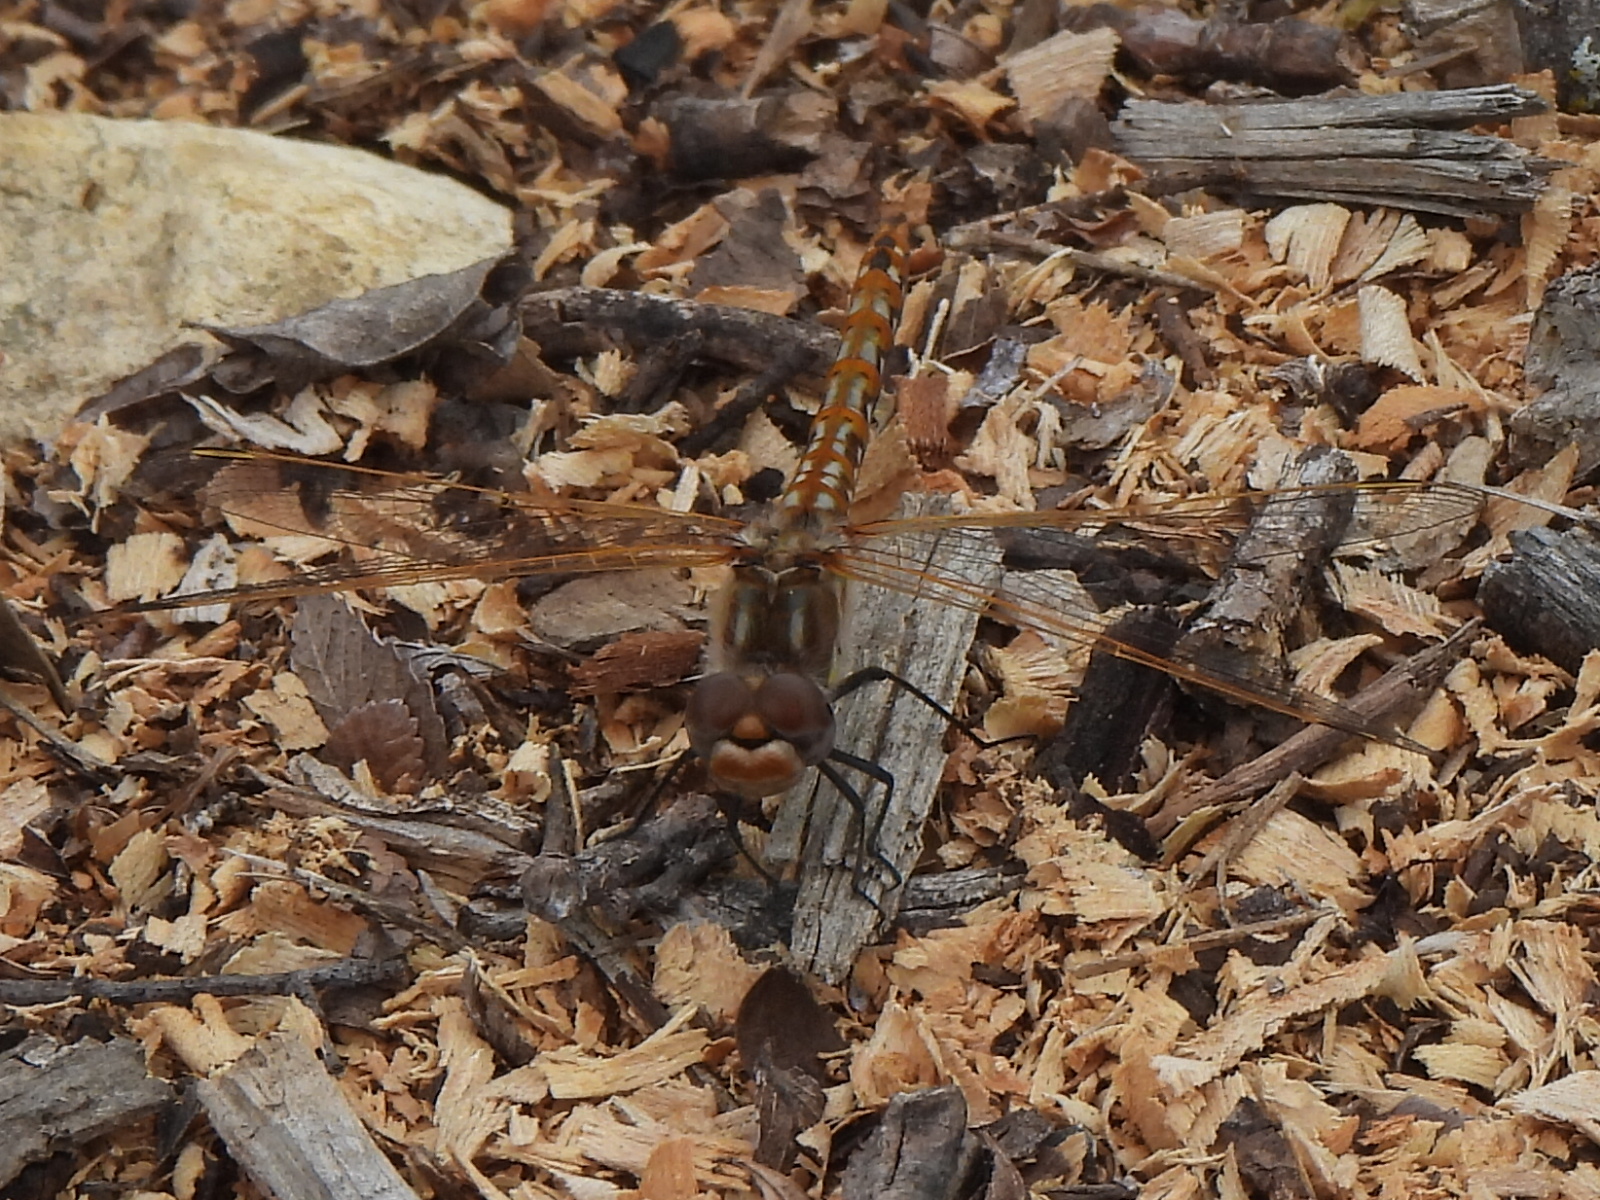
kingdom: Animalia
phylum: Arthropoda
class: Insecta
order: Odonata
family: Libellulidae
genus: Sympetrum
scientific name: Sympetrum corruptum
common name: Variegated meadowhawk
